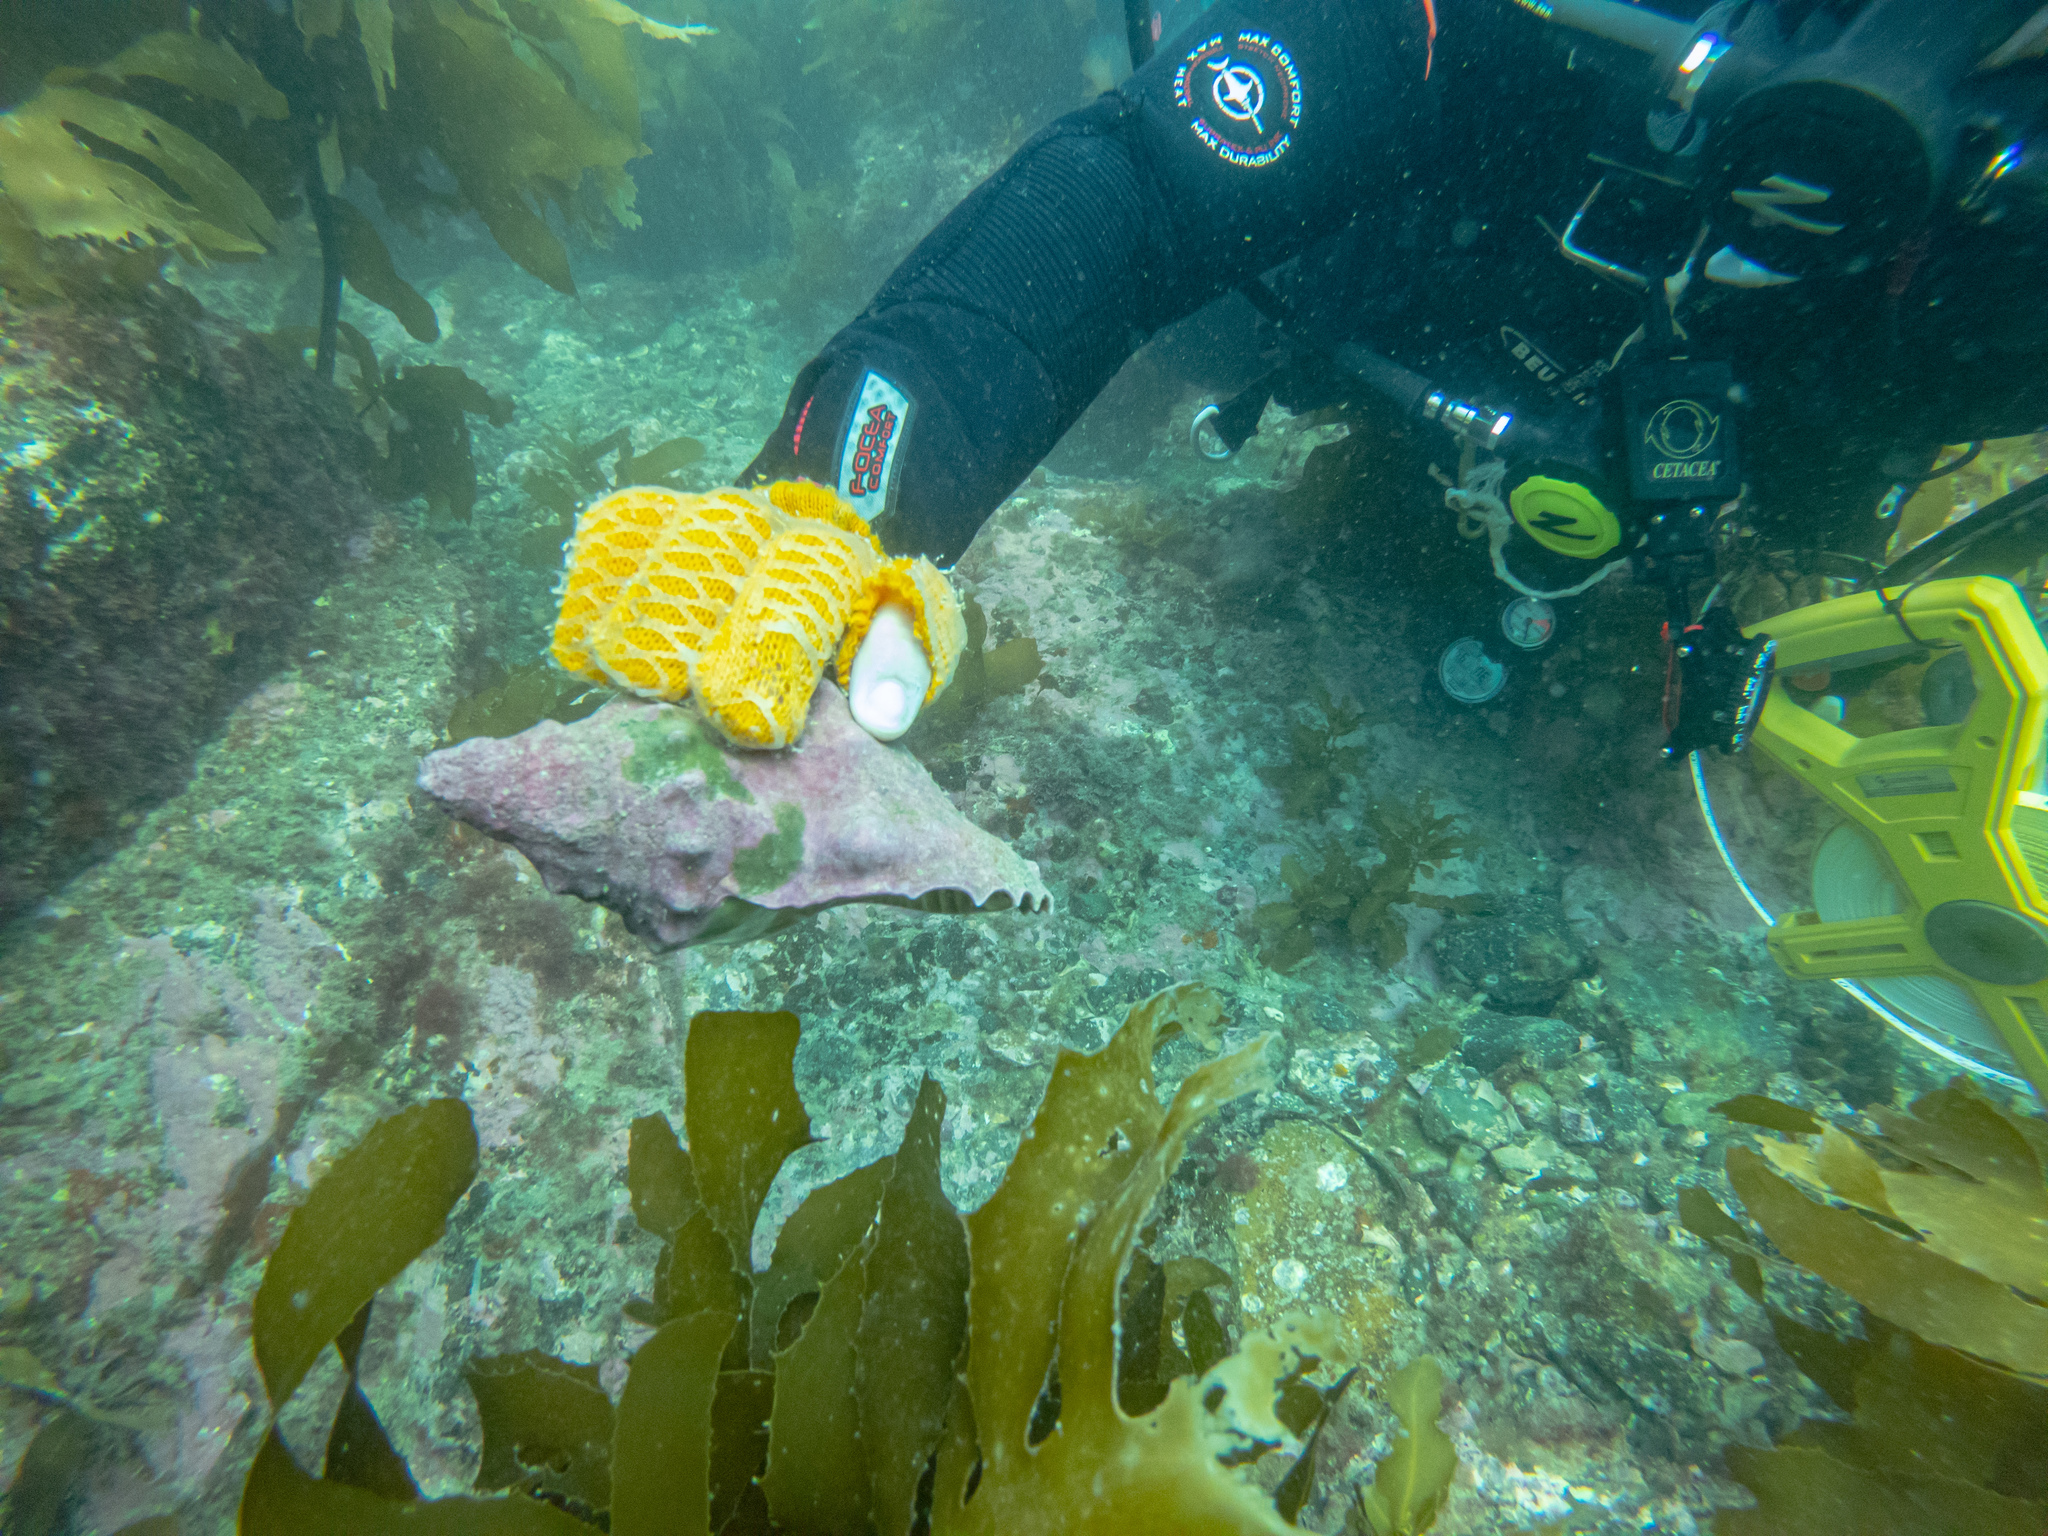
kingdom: Animalia
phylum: Mollusca
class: Gastropoda
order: Littorinimorpha
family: Charoniidae
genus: Charonia
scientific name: Charonia lampas
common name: Knobbed triton
